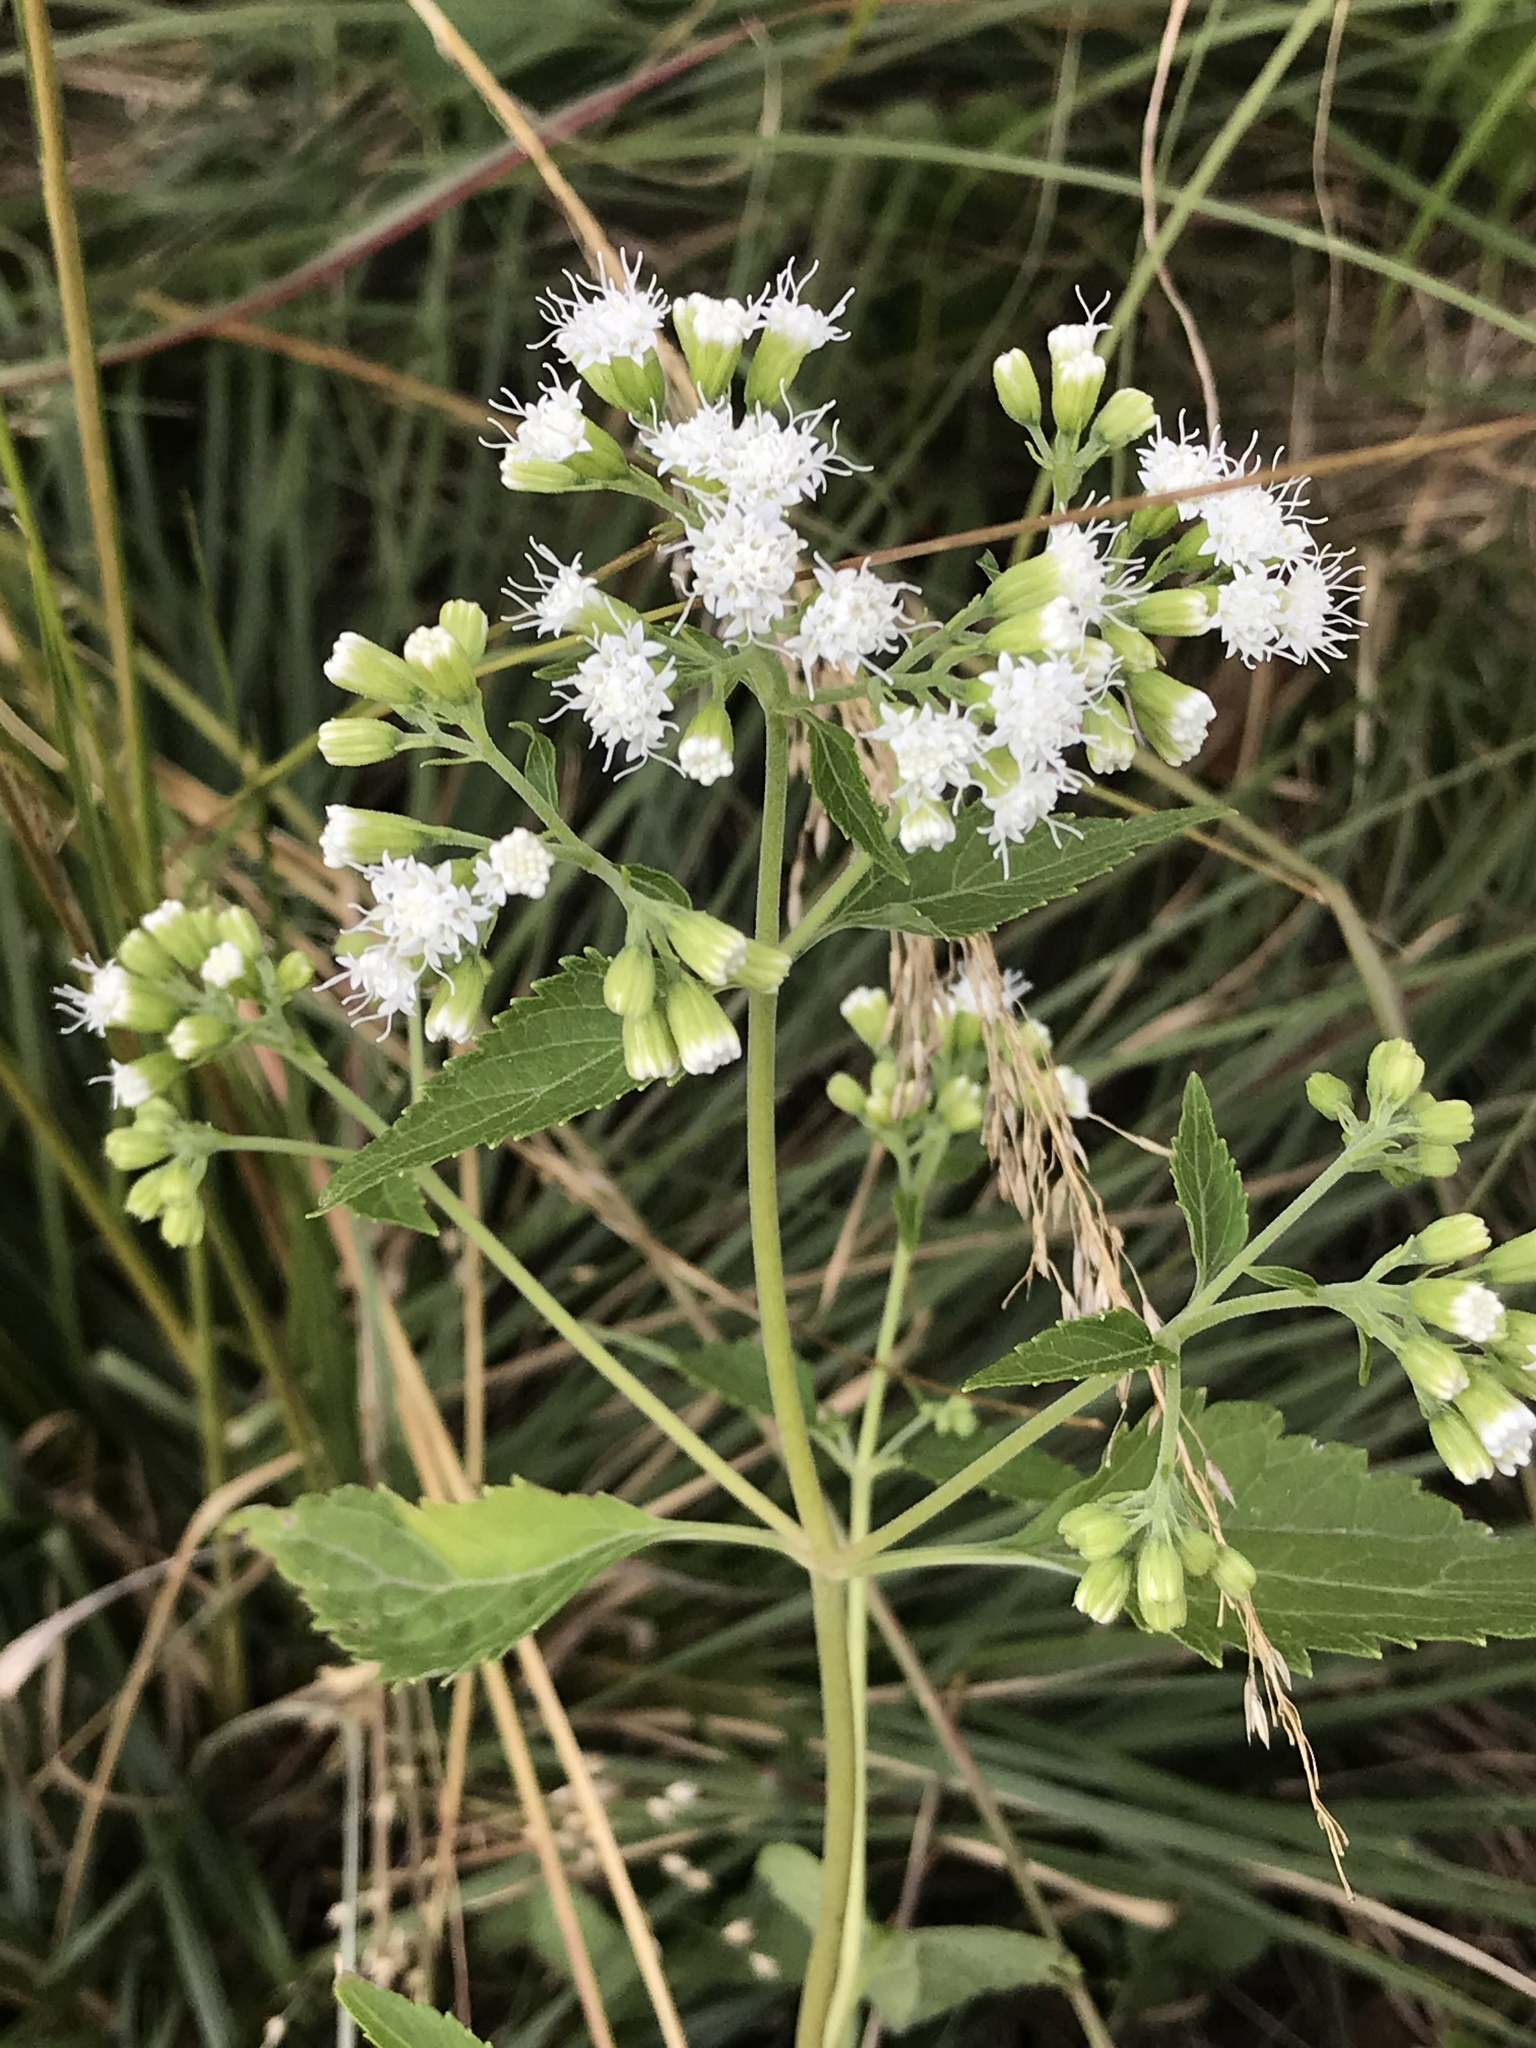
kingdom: Plantae
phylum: Tracheophyta
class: Magnoliopsida
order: Asterales
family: Asteraceae
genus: Ageratina
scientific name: Ageratina altissima
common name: White snakeroot
